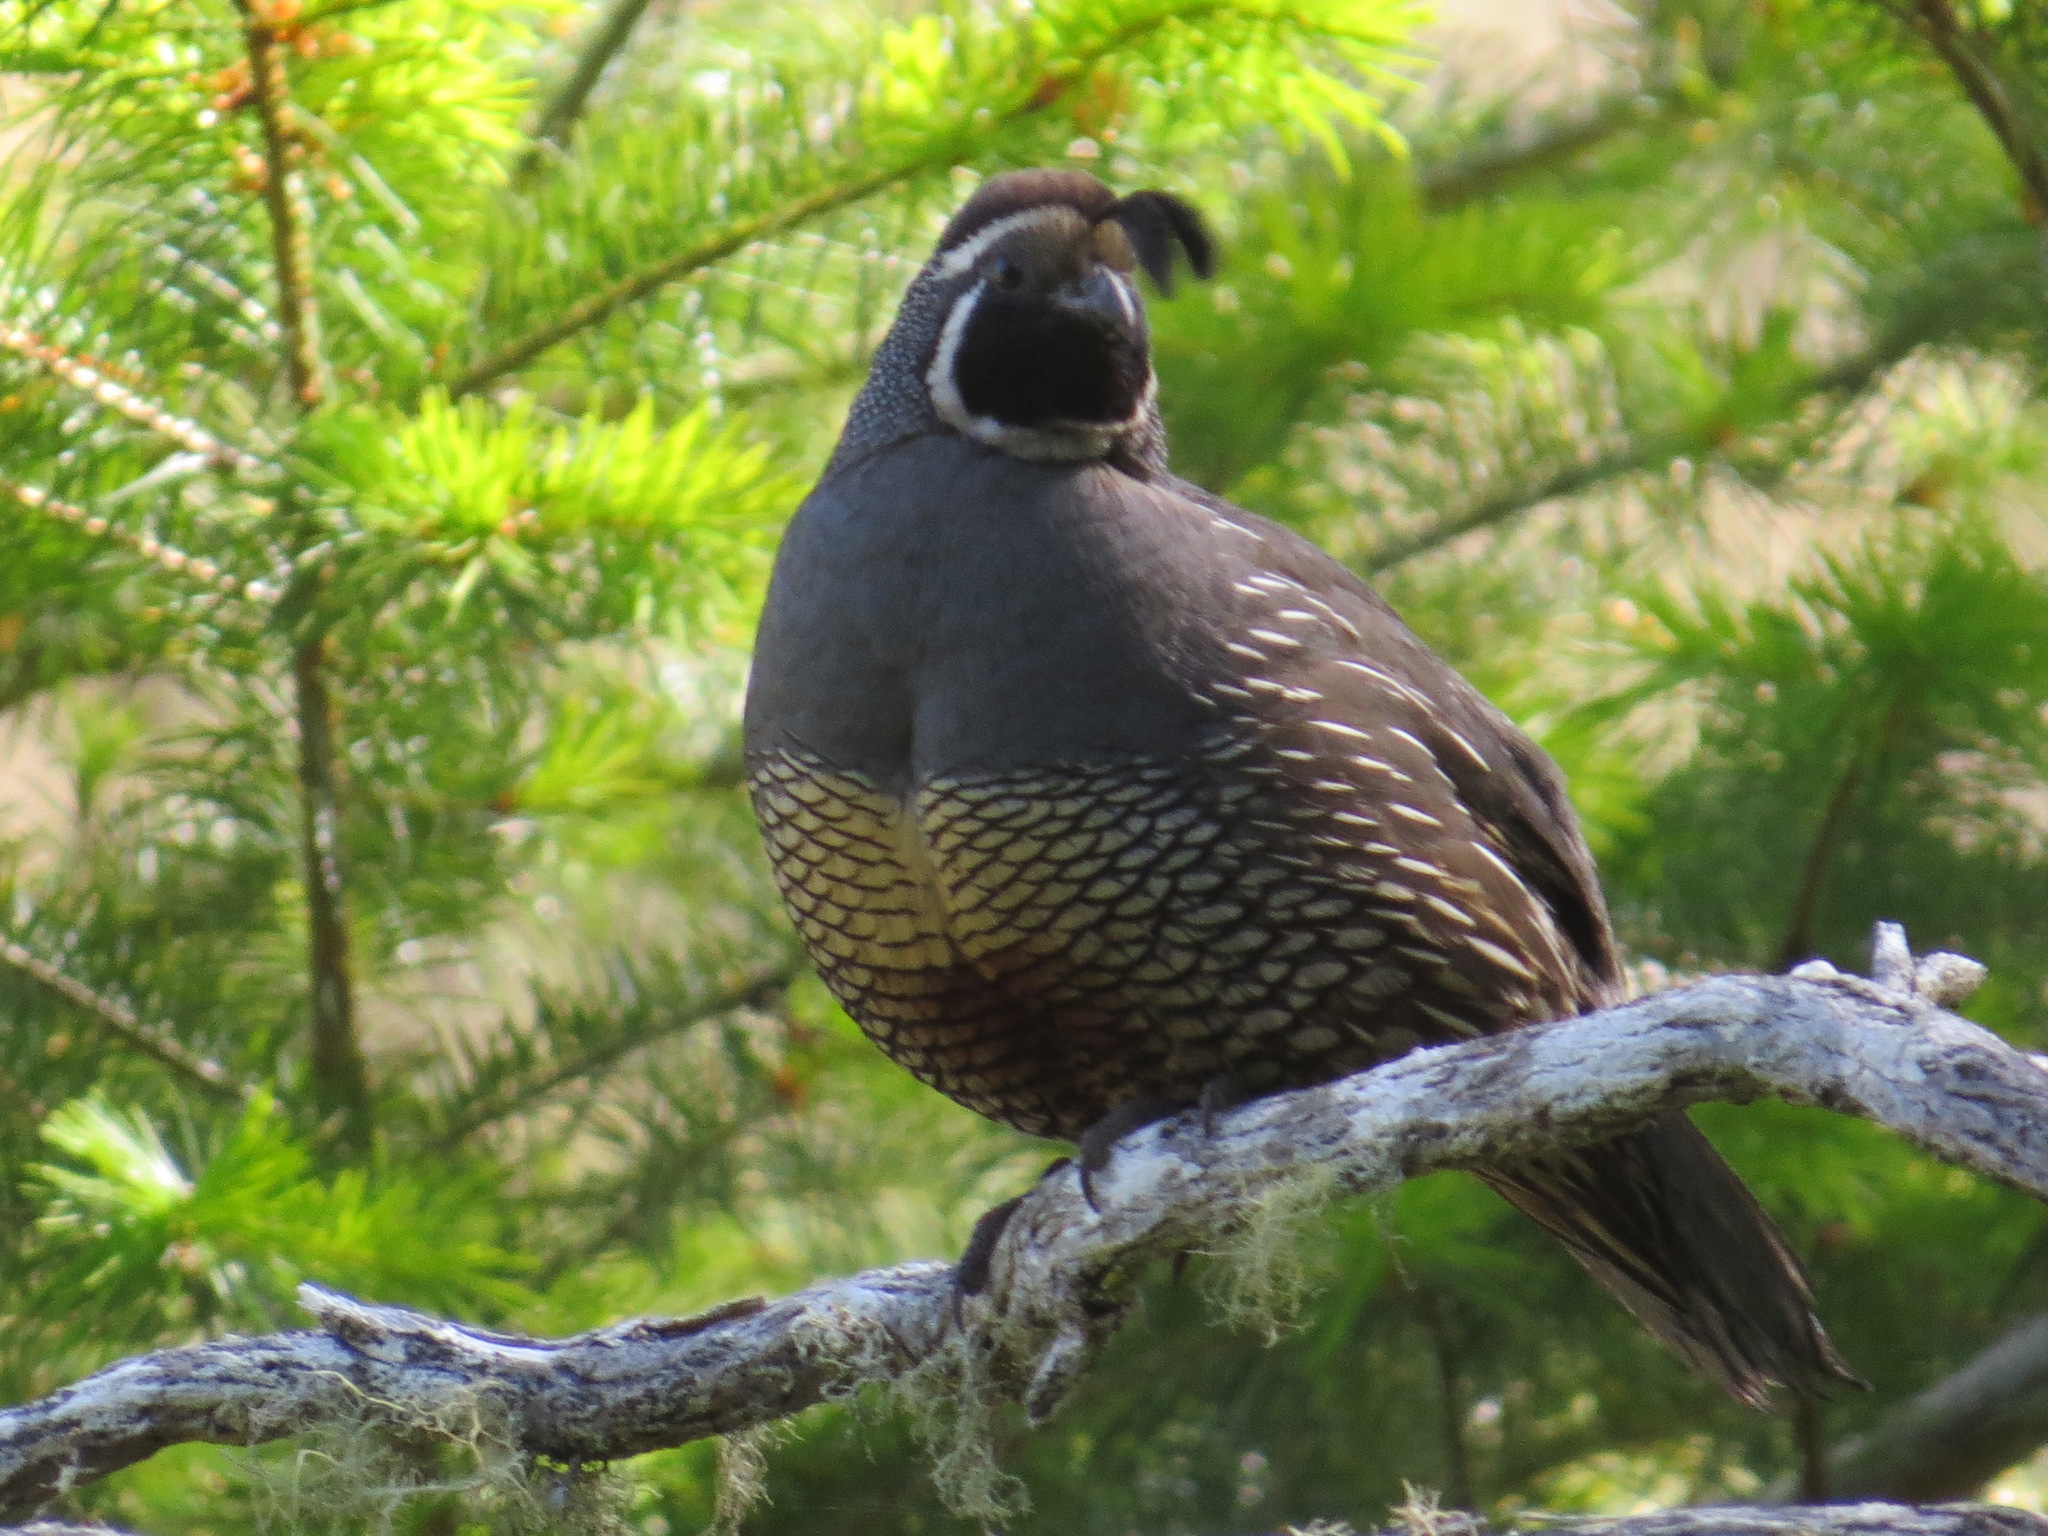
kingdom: Animalia
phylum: Chordata
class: Aves
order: Galliformes
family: Odontophoridae
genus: Callipepla
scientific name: Callipepla californica
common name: California quail
